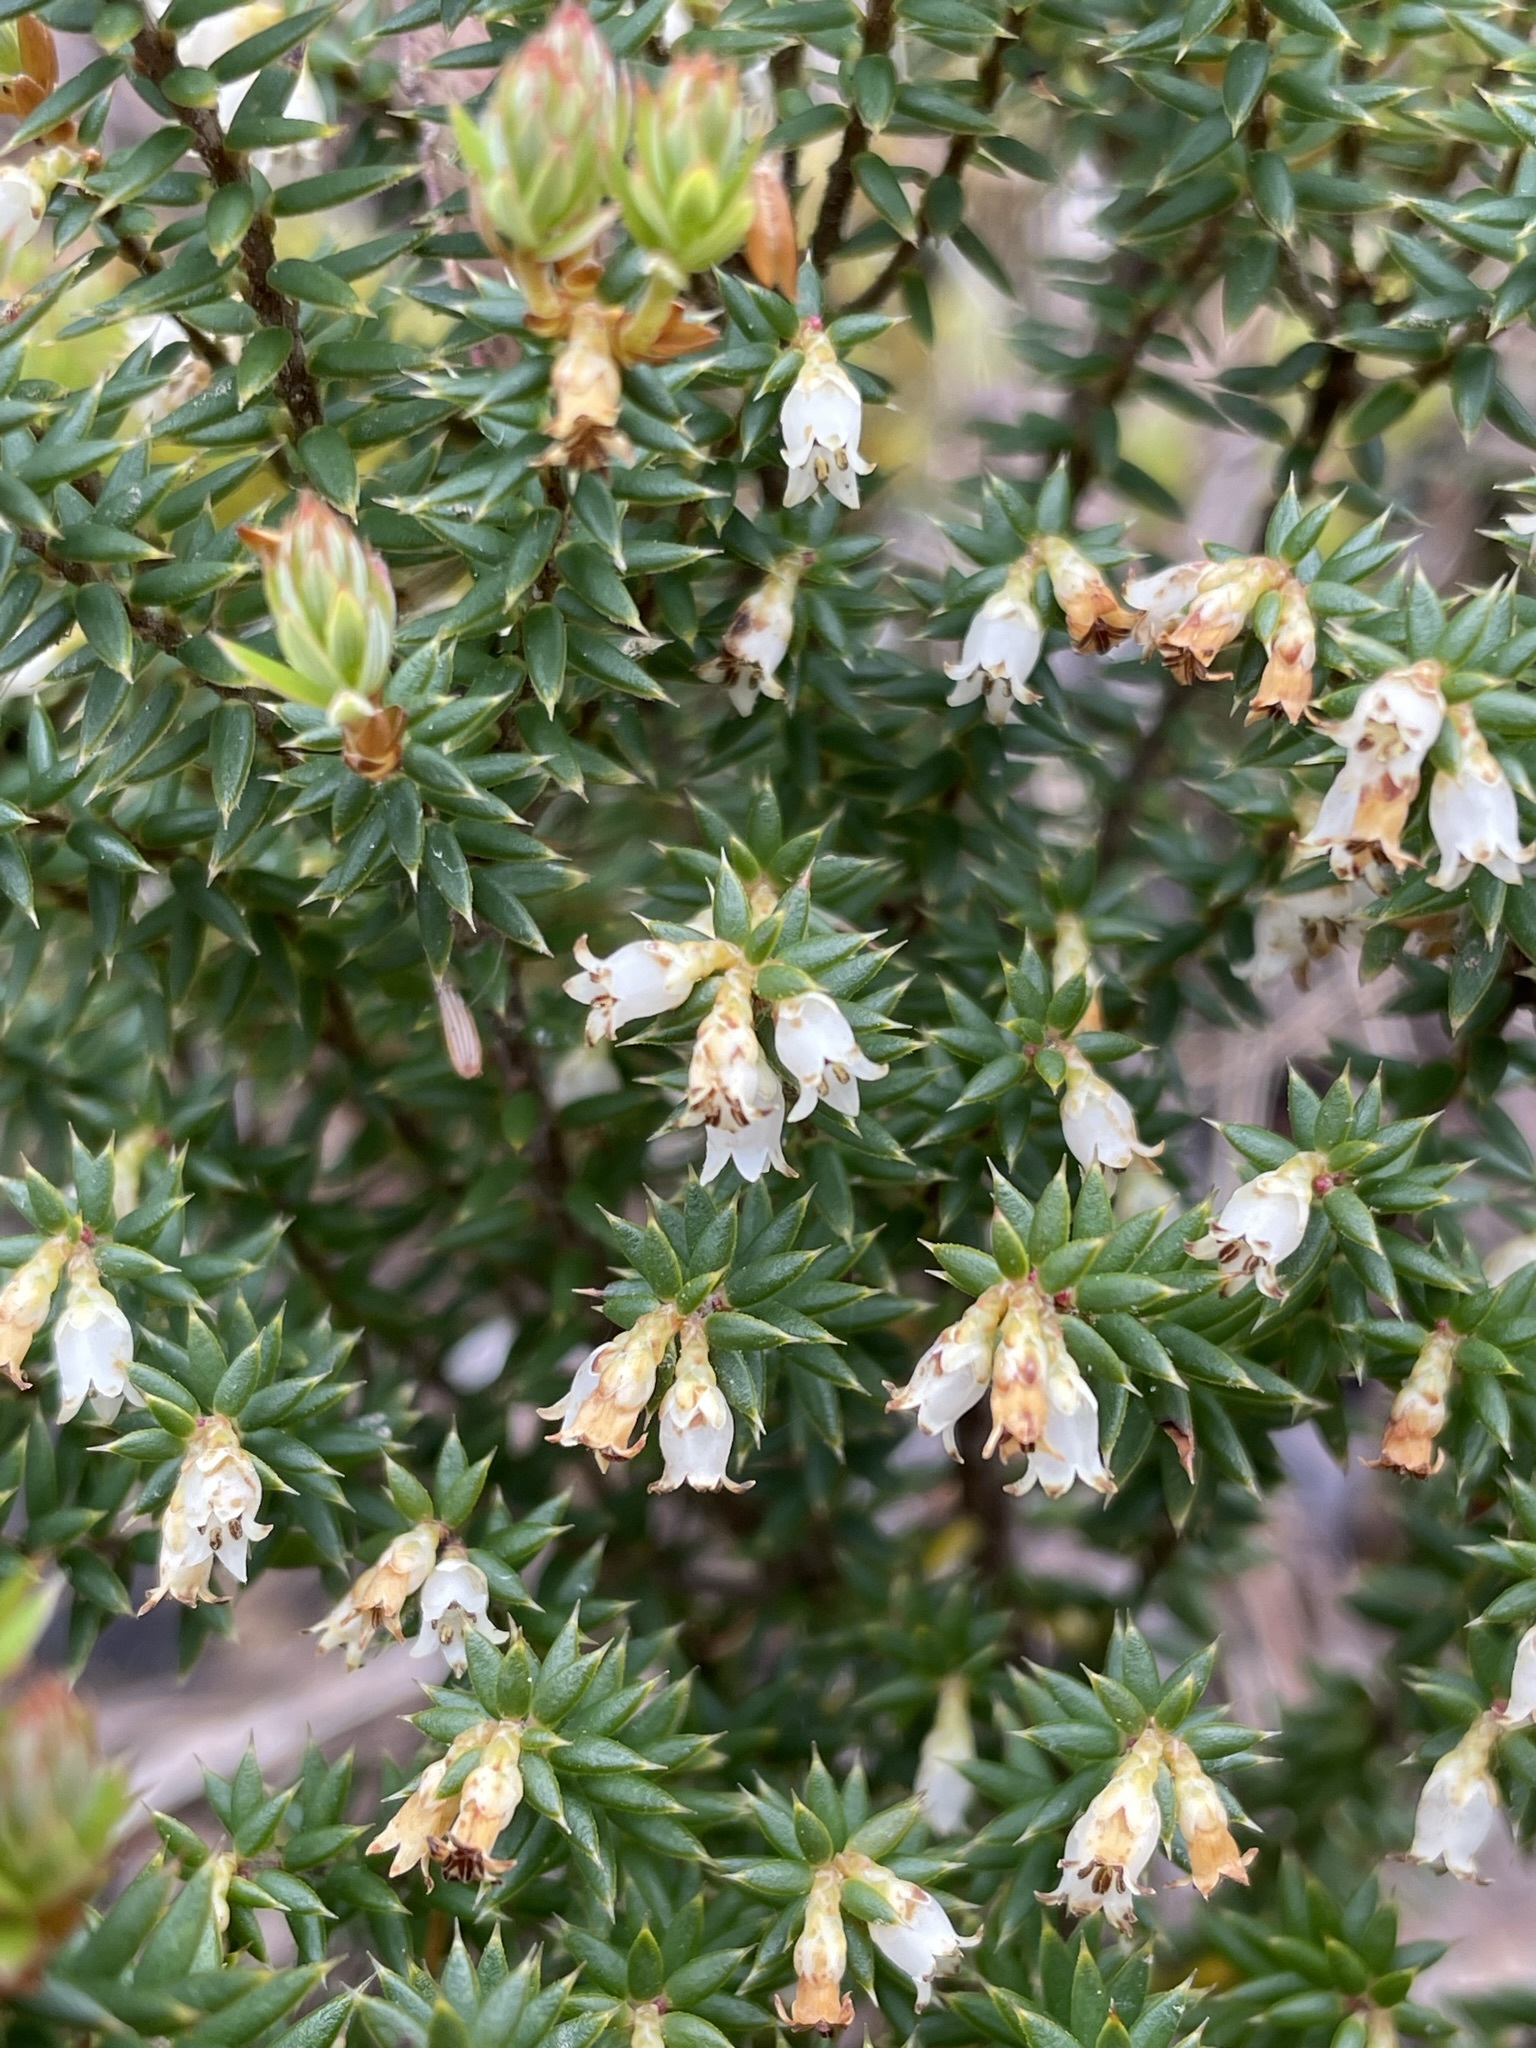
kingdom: Plantae
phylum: Tracheophyta
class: Magnoliopsida
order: Ericales
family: Ericaceae
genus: Leptecophylla
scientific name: Leptecophylla parvifolia
